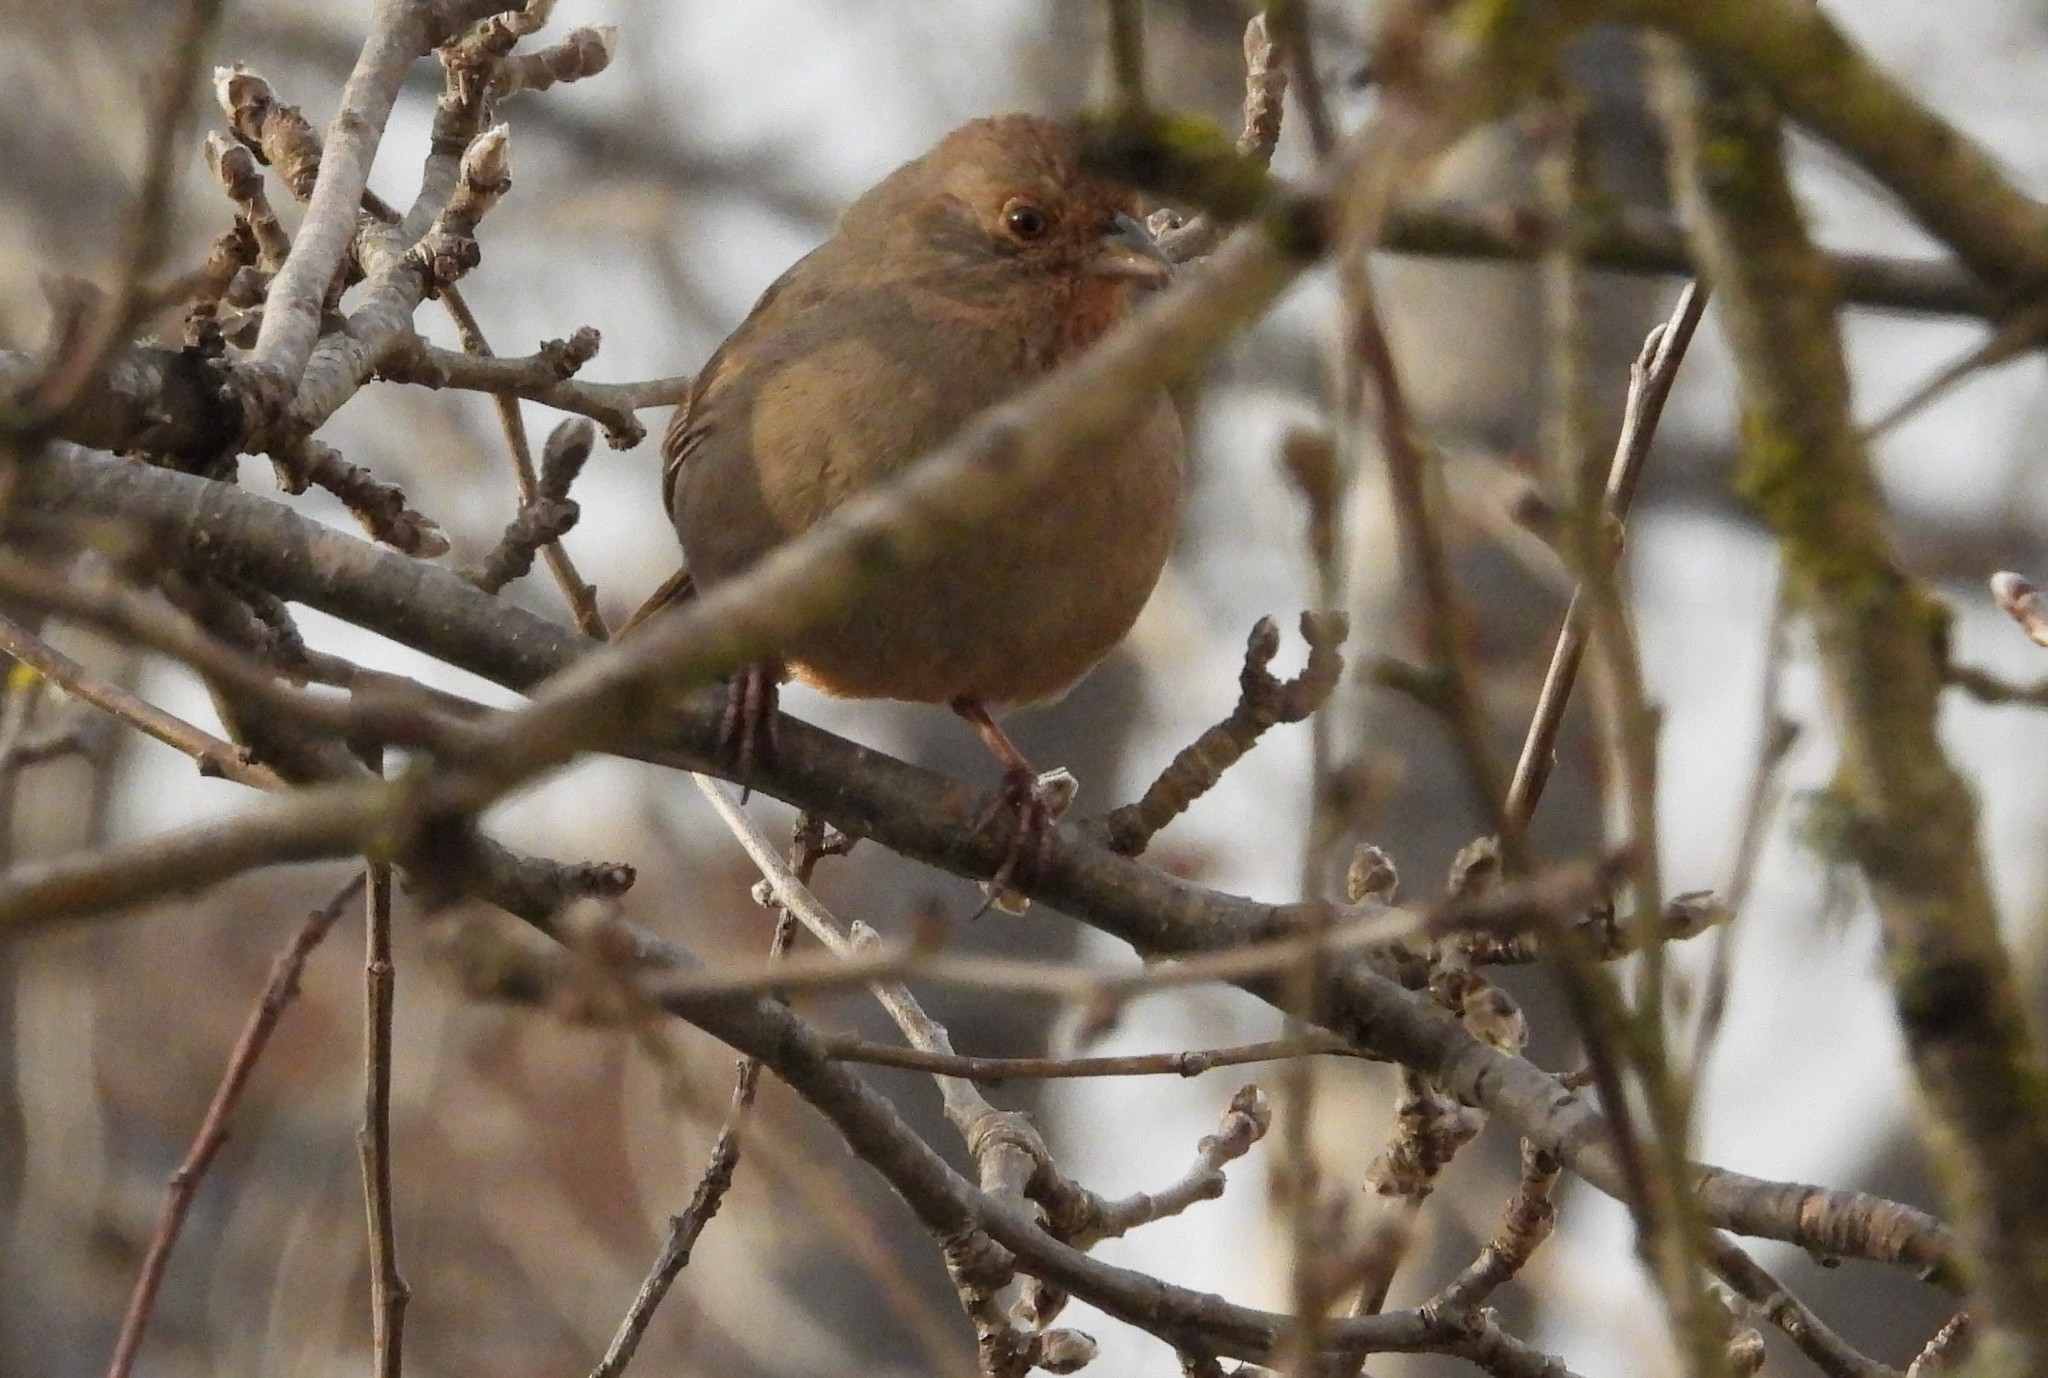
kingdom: Animalia
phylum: Chordata
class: Aves
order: Passeriformes
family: Passerellidae
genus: Melozone
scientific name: Melozone crissalis
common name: California towhee
